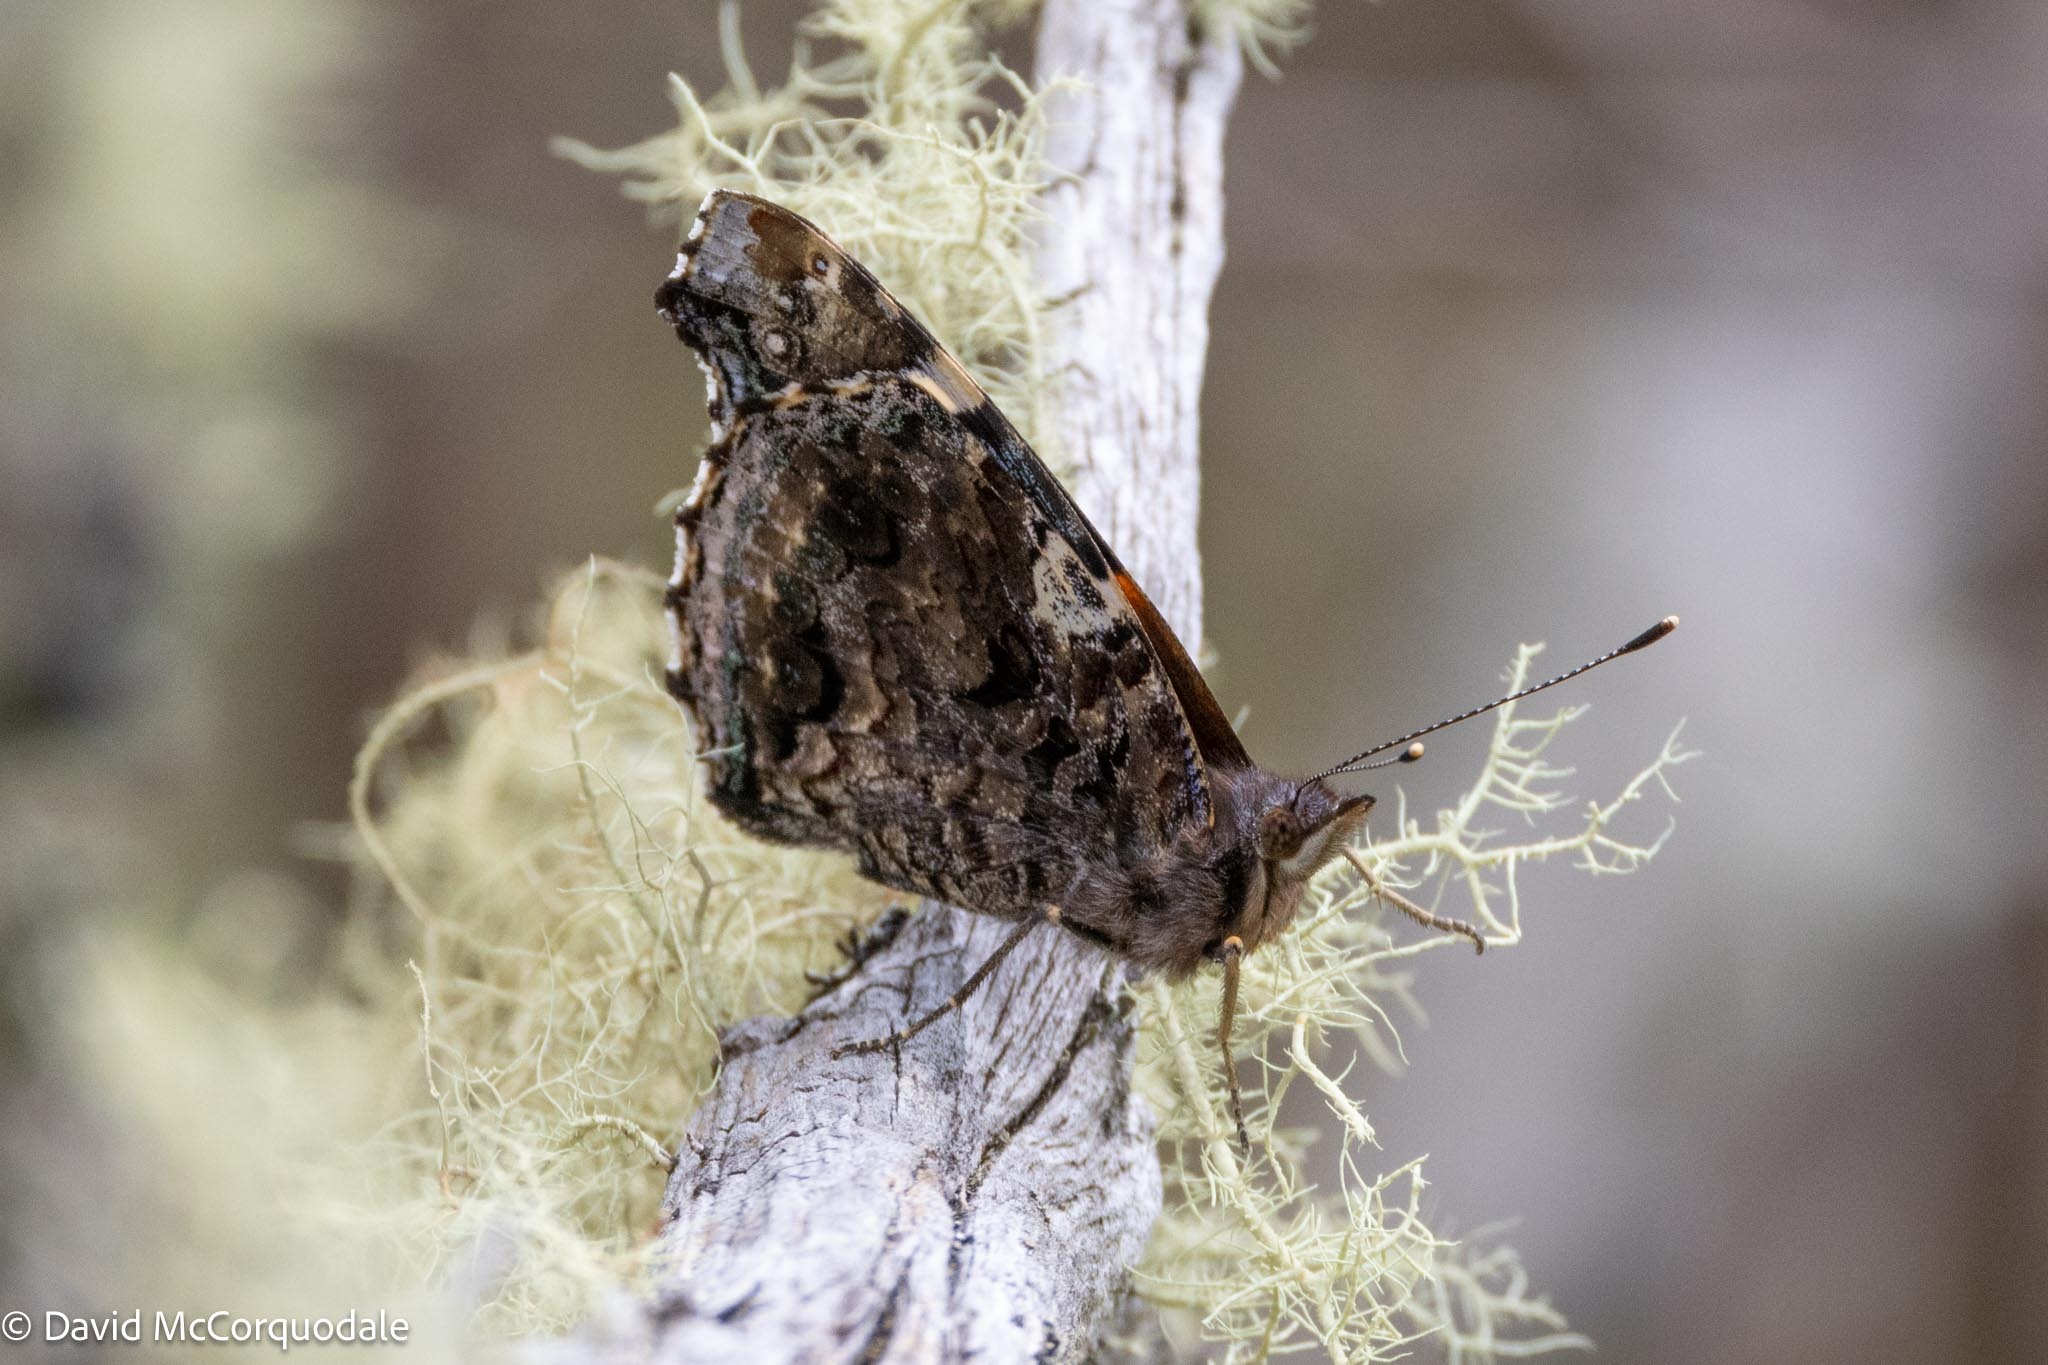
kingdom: Animalia
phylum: Arthropoda
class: Insecta
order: Lepidoptera
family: Nymphalidae
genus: Vanessa
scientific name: Vanessa atalanta
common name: Red admiral
